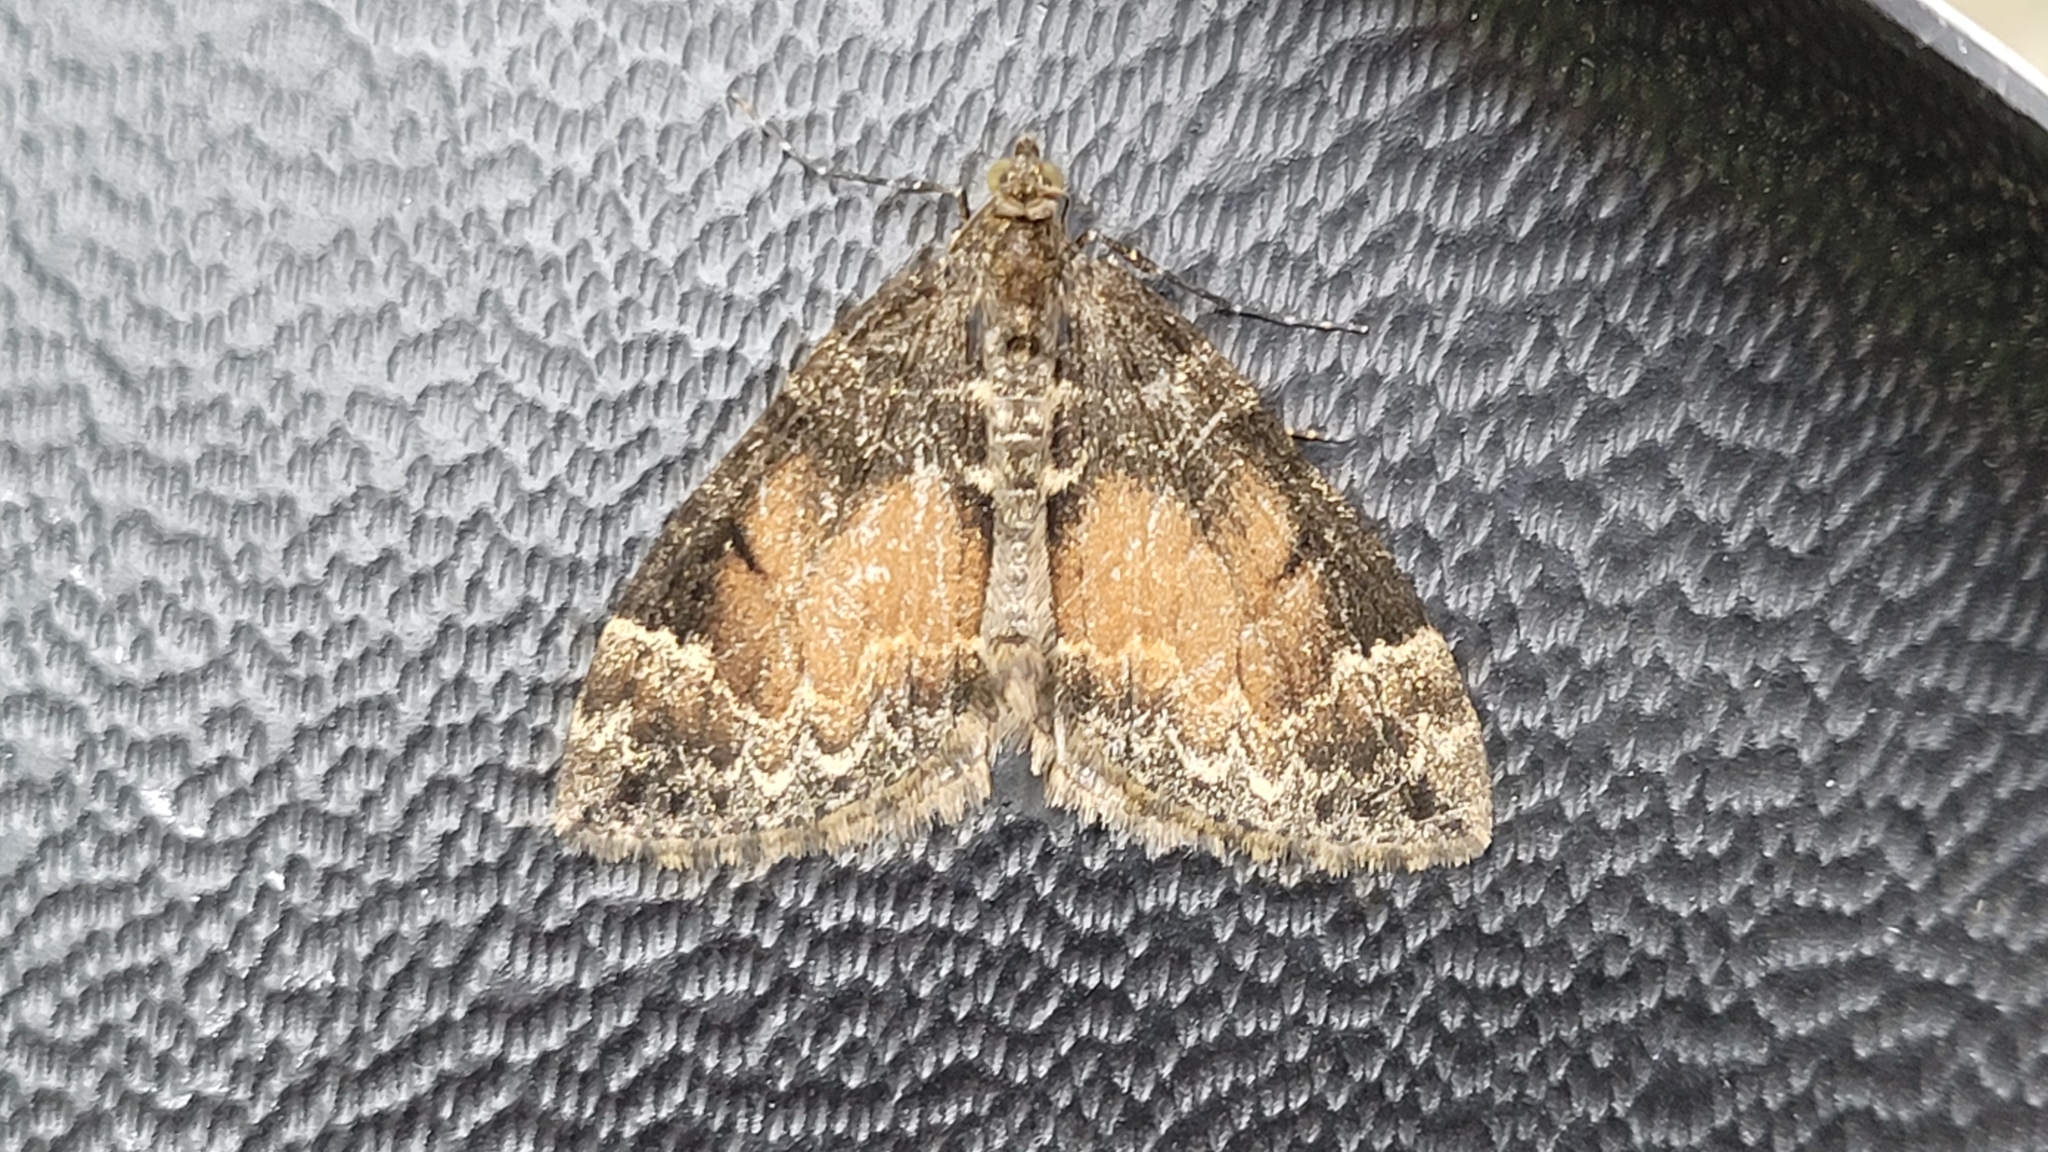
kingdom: Animalia
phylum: Arthropoda
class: Insecta
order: Lepidoptera
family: Geometridae
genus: Dysstroma
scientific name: Dysstroma truncata
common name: Common marbled carpet
